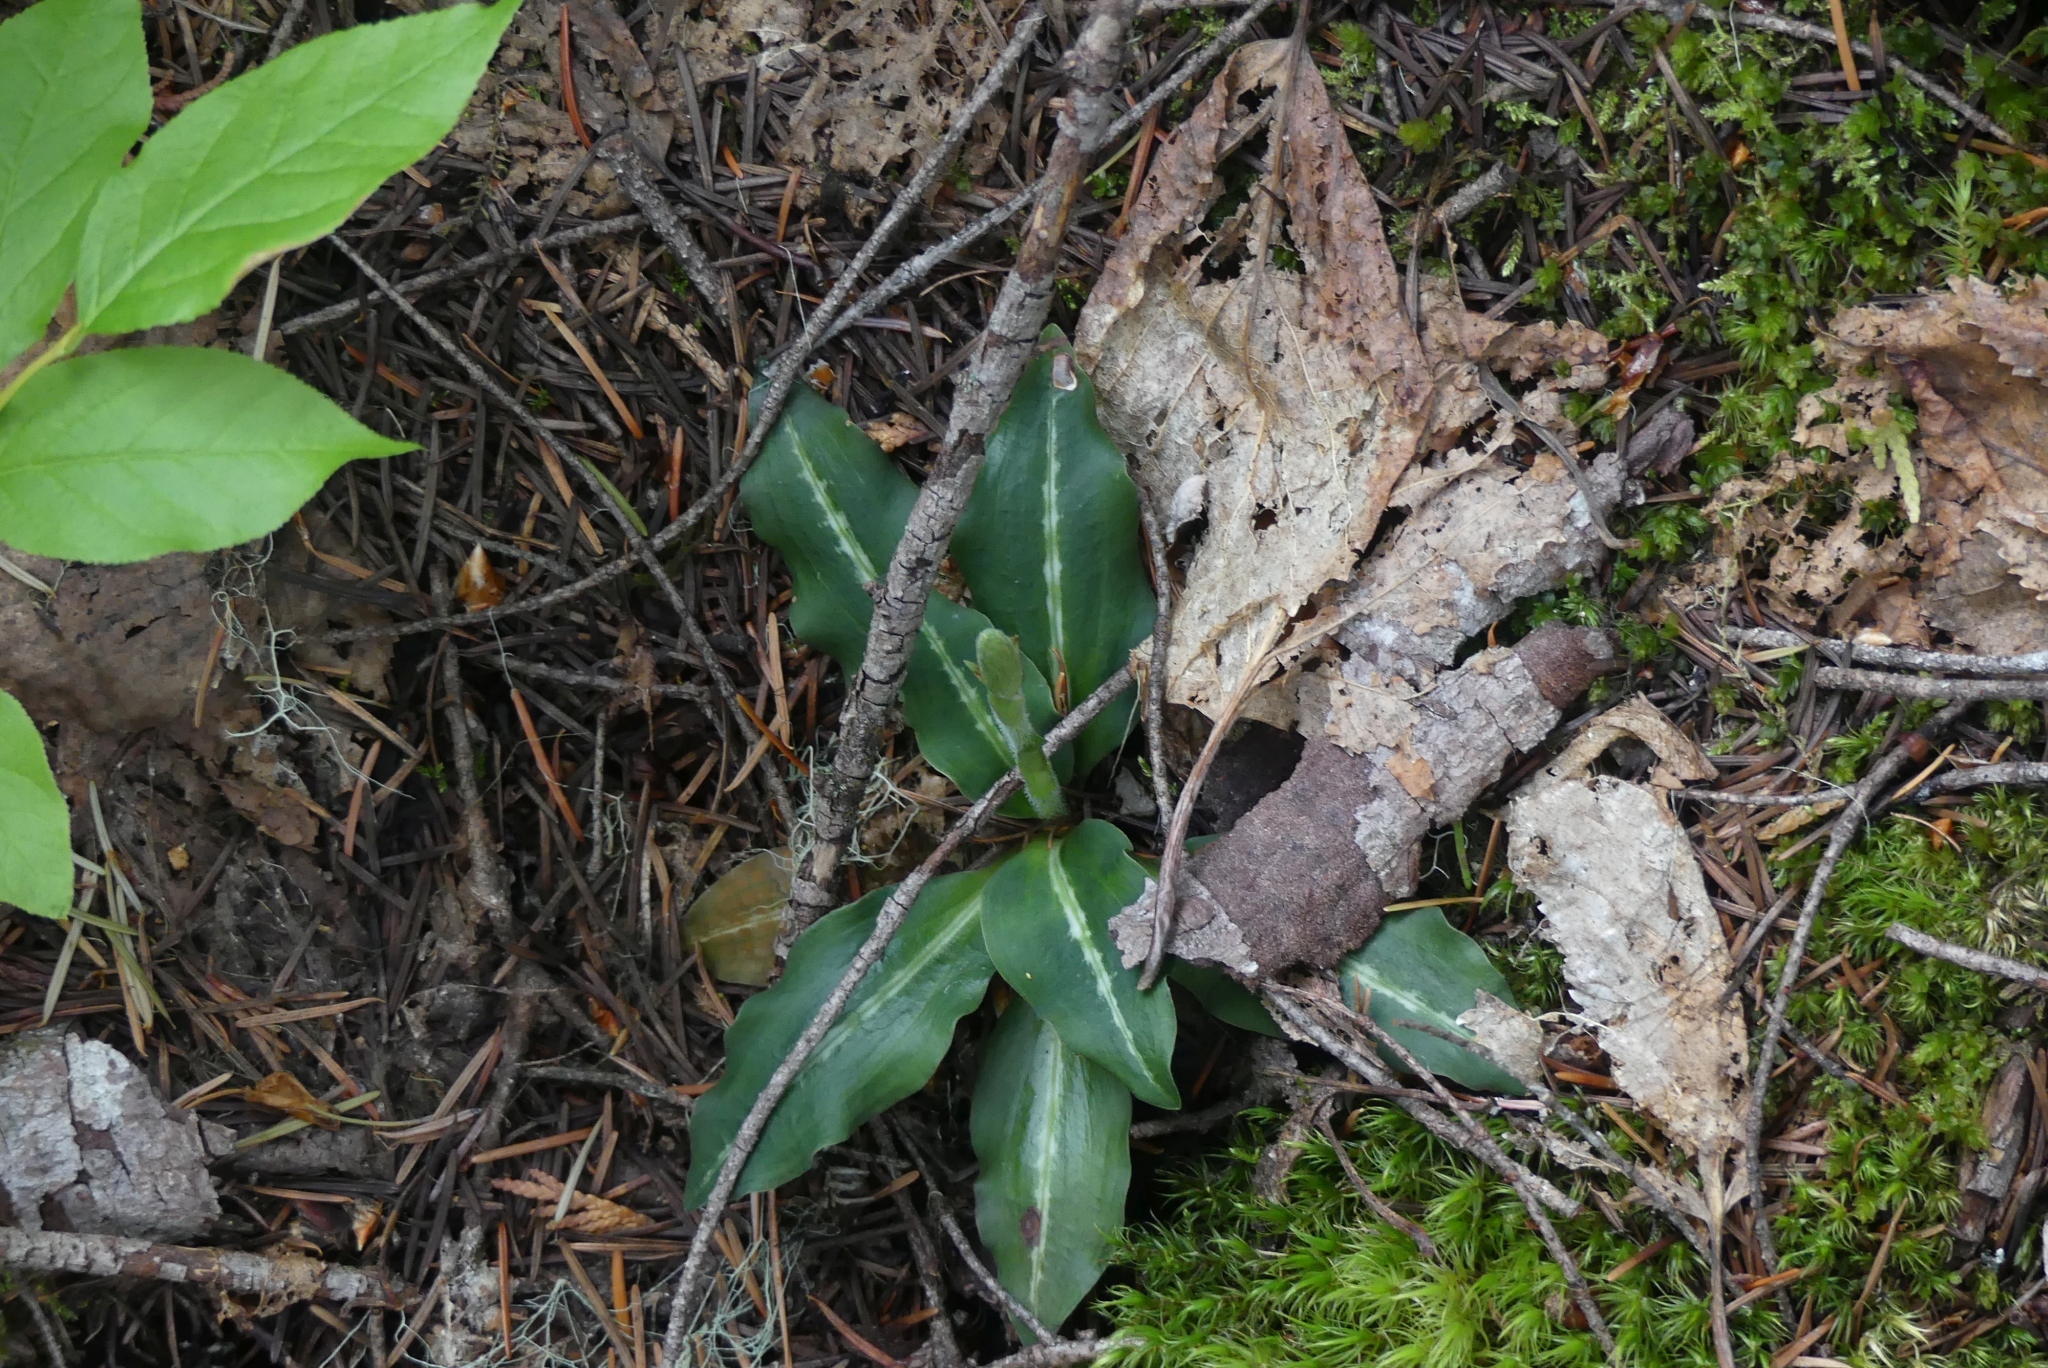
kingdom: Plantae
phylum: Tracheophyta
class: Liliopsida
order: Asparagales
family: Orchidaceae
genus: Goodyera
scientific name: Goodyera oblongifolia
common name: Giant rattlesnake-plantain
